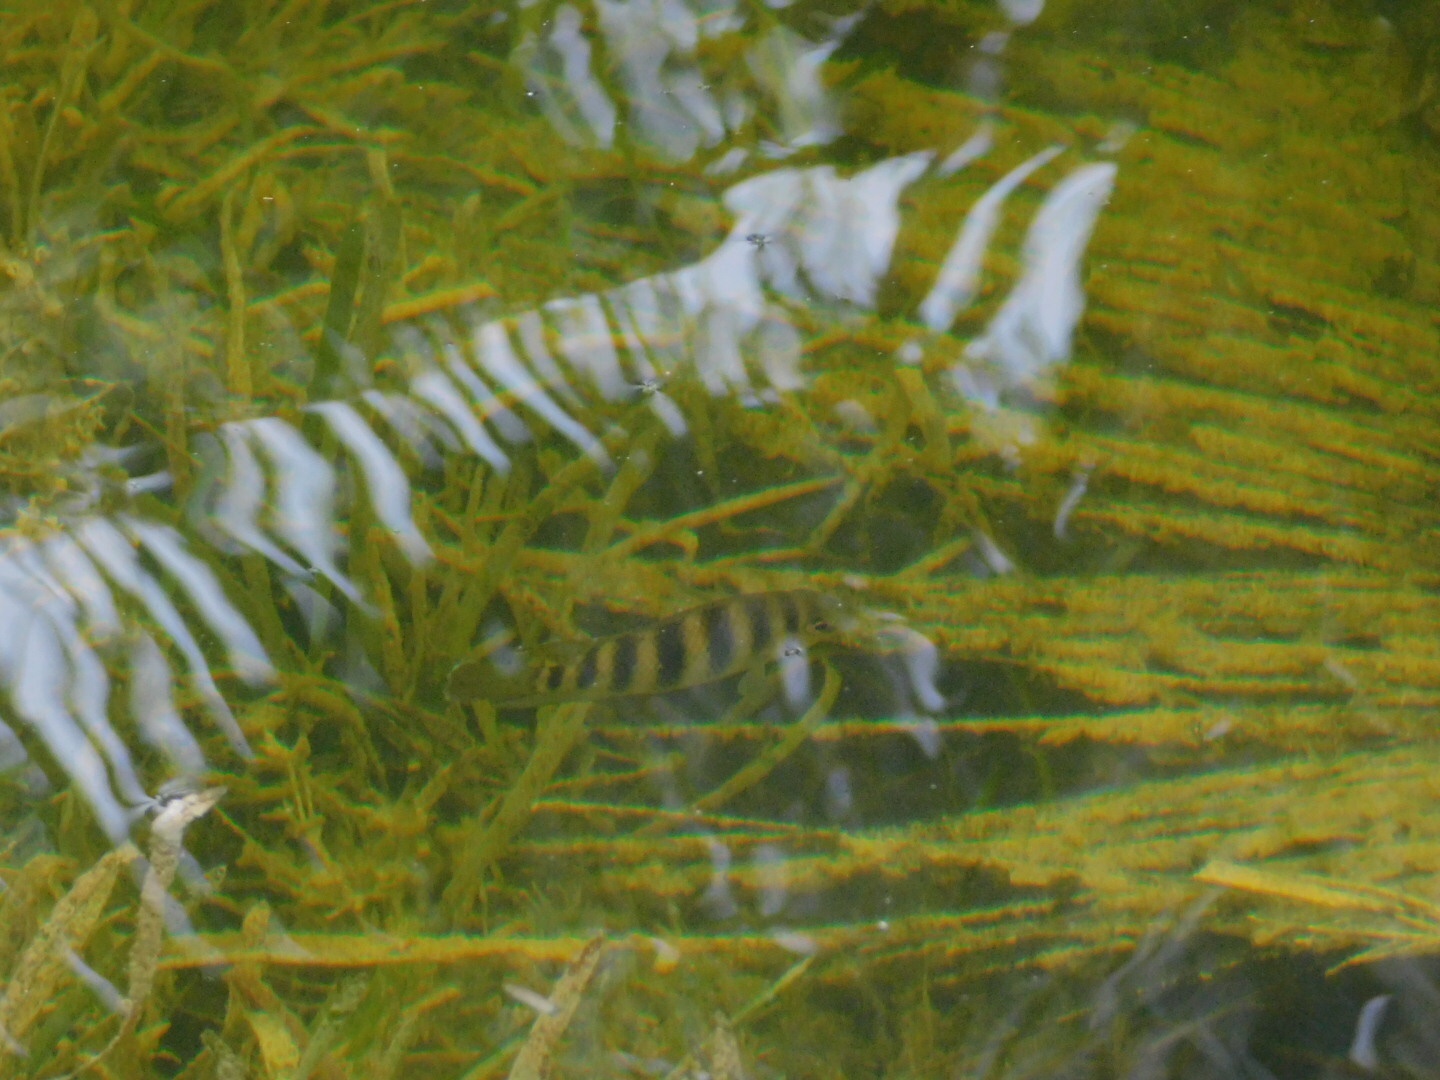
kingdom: Animalia
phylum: Chordata
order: Perciformes
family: Cichlidae
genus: Pelmatolapia
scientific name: Pelmatolapia mariae
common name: Spotted tilapia
